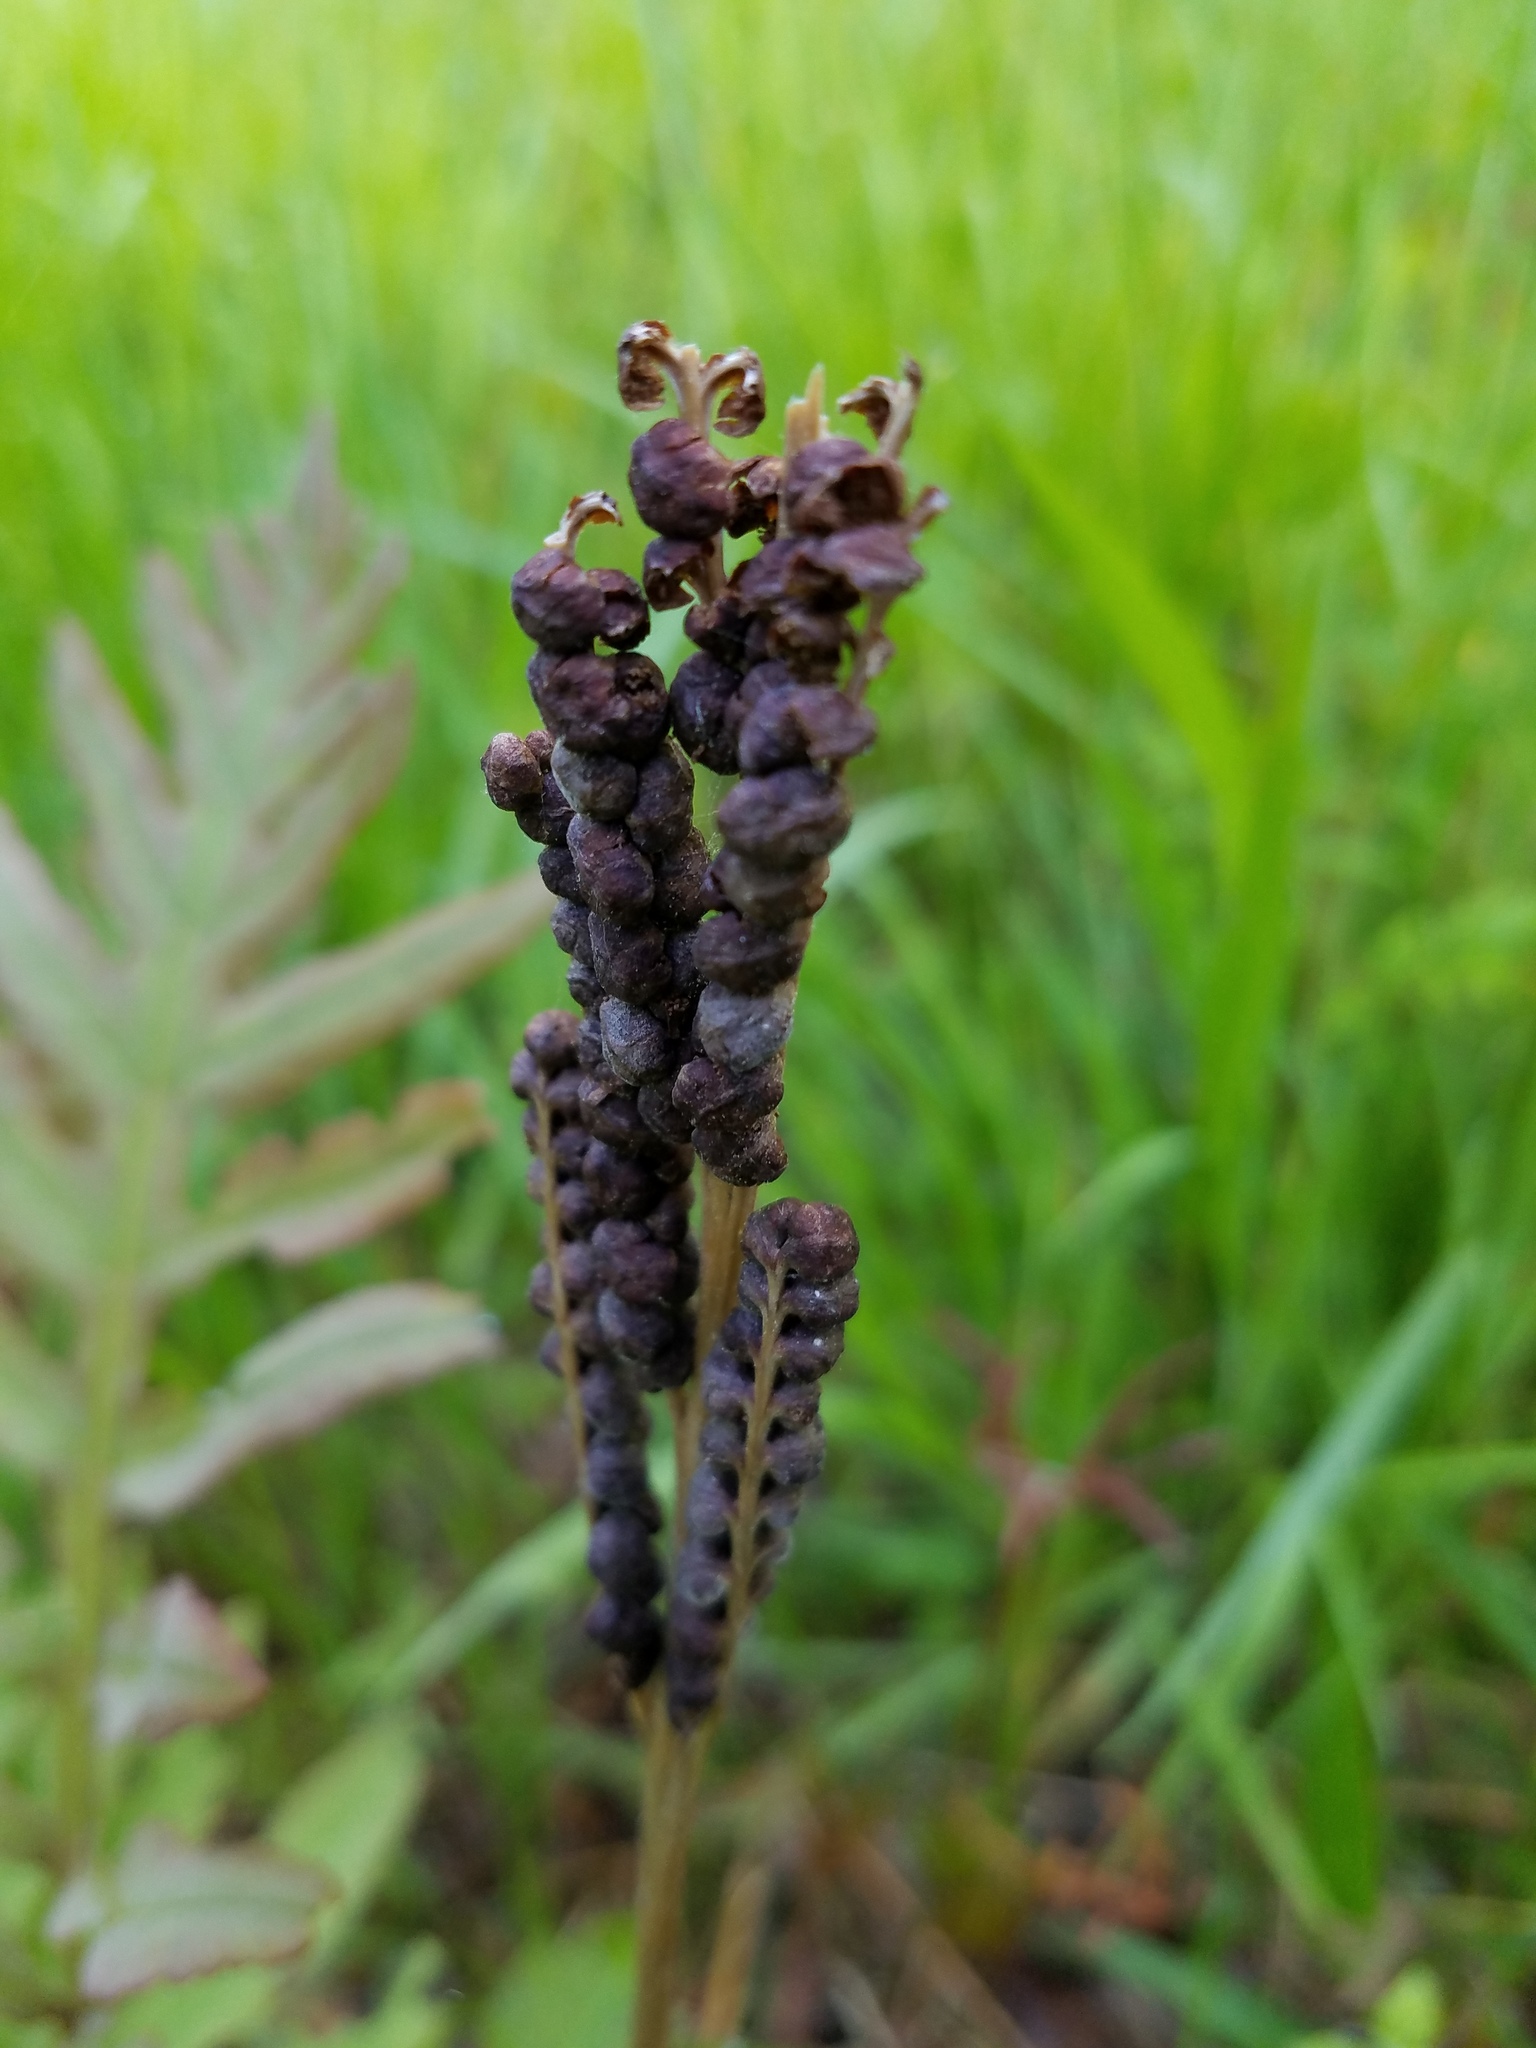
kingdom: Plantae
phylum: Tracheophyta
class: Polypodiopsida
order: Polypodiales
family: Onocleaceae
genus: Onoclea
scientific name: Onoclea sensibilis
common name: Sensitive fern
